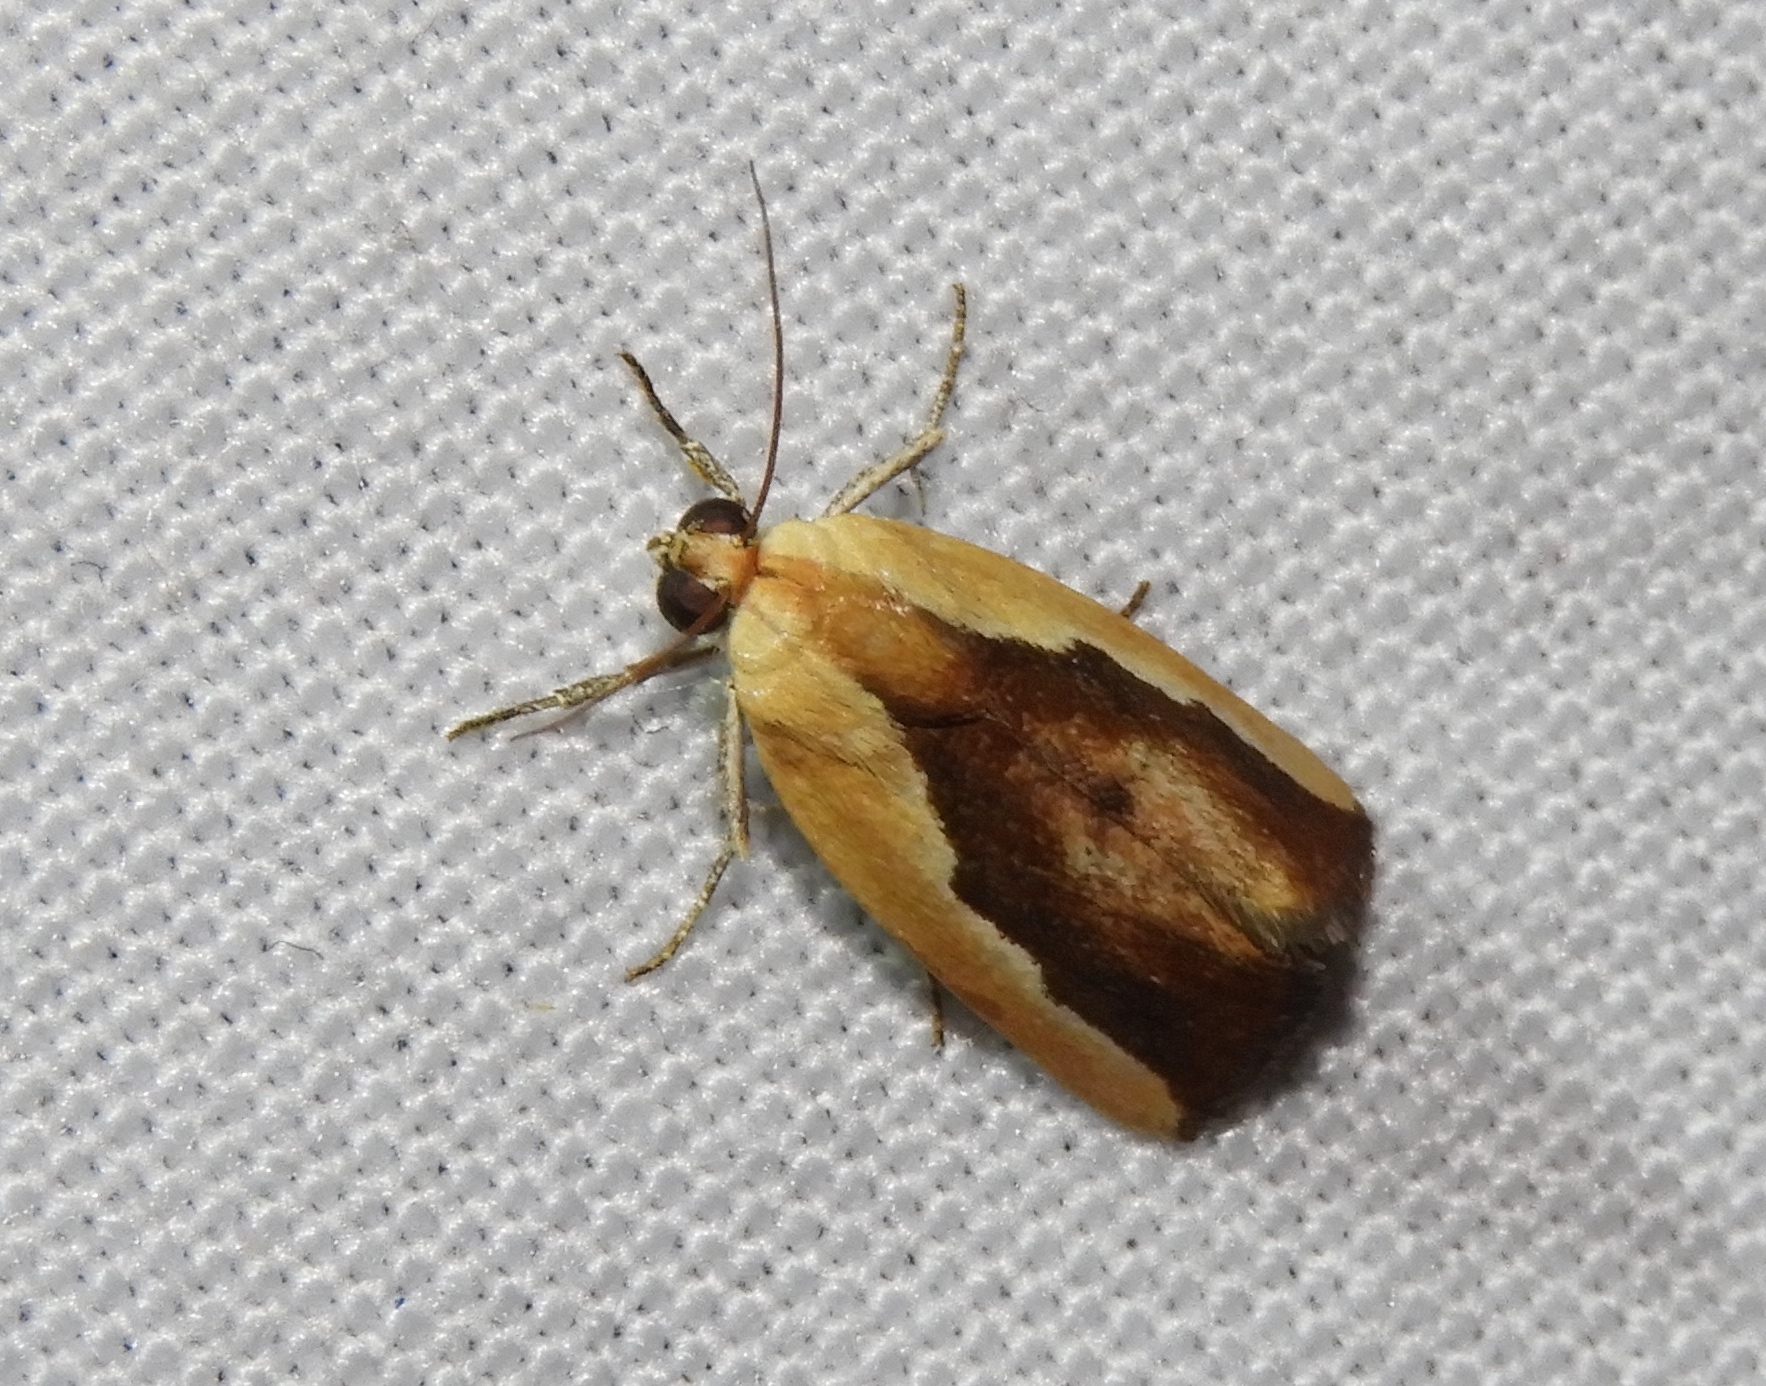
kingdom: Animalia
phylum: Arthropoda
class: Insecta
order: Lepidoptera
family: Noctuidae
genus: Acontia
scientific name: Acontia exigua
